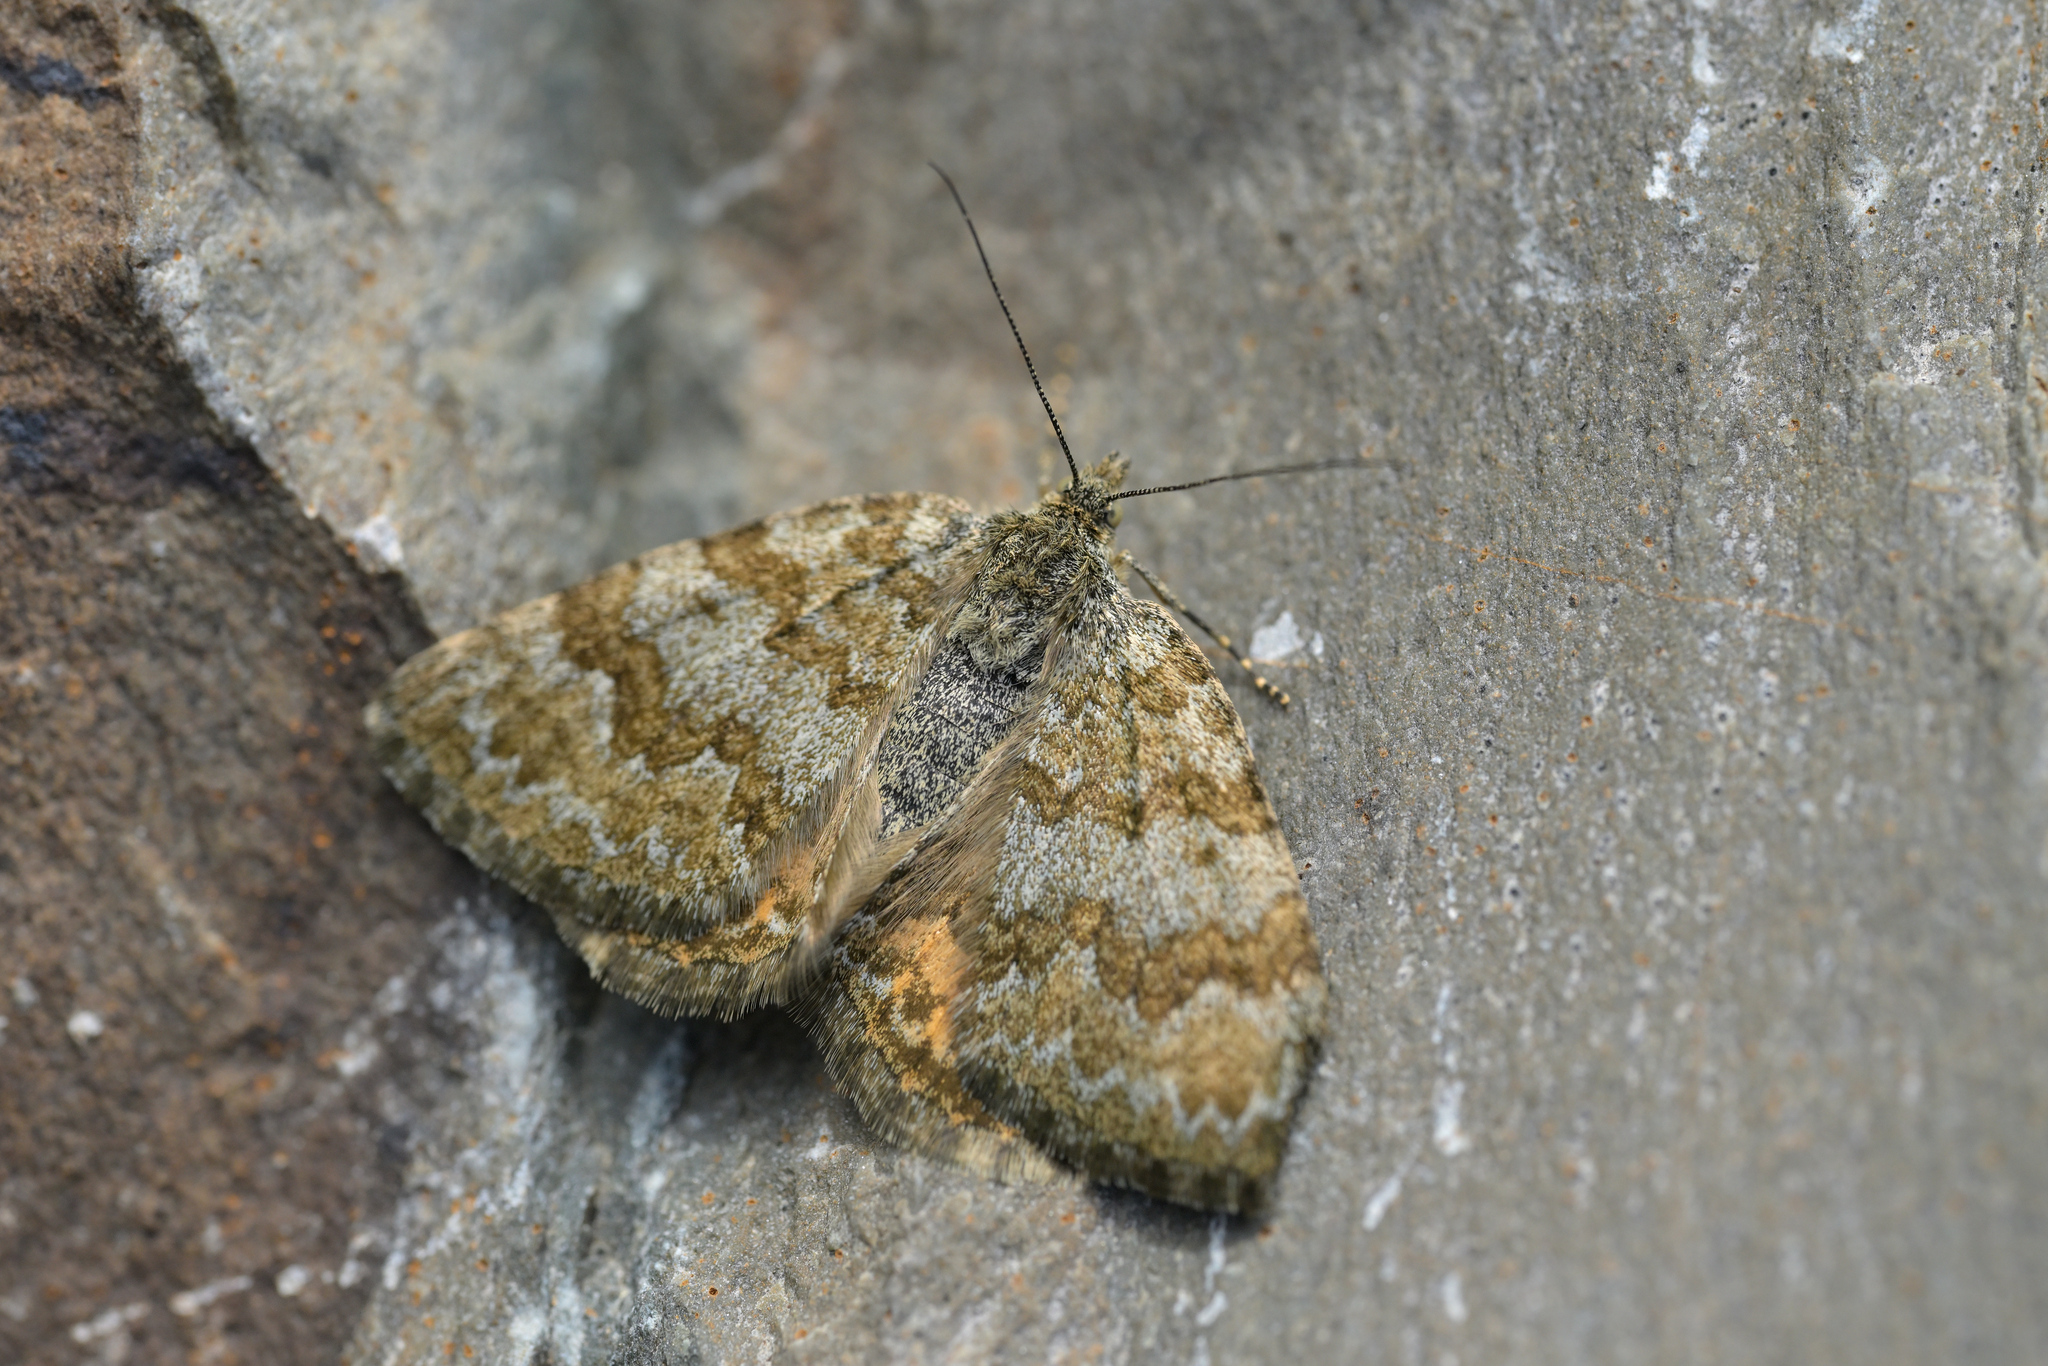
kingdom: Animalia
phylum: Arthropoda
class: Insecta
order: Lepidoptera
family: Geometridae
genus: Dasyuris
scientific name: Dasyuris anceps
